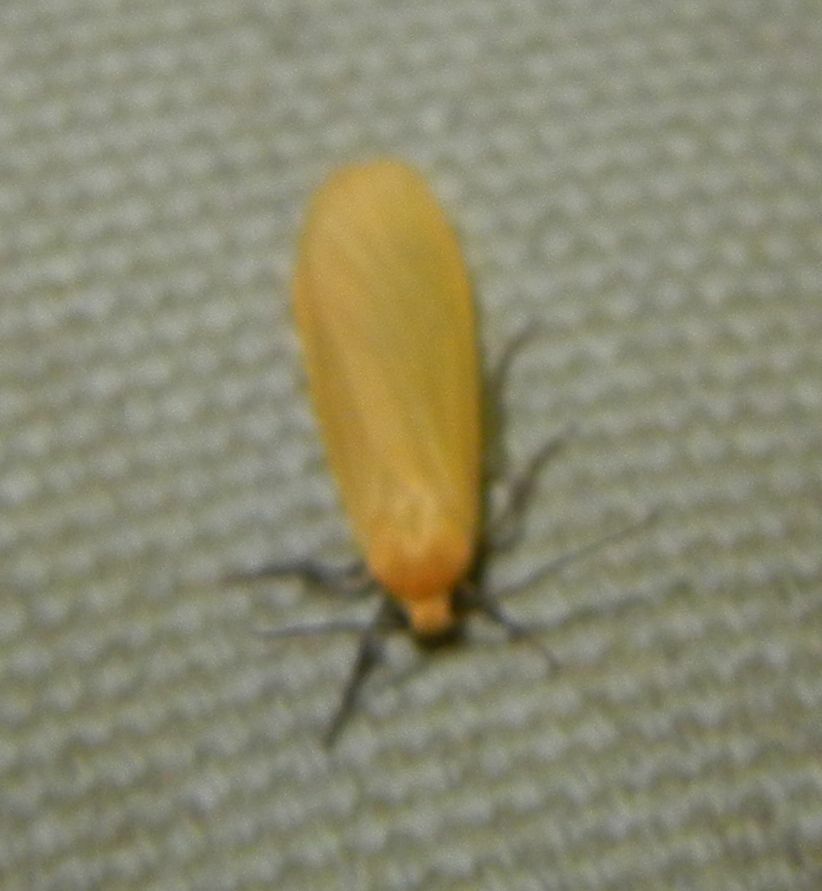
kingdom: Animalia
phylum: Arthropoda
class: Insecta
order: Lepidoptera
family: Erebidae
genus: Wittia
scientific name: Wittia sororcula
